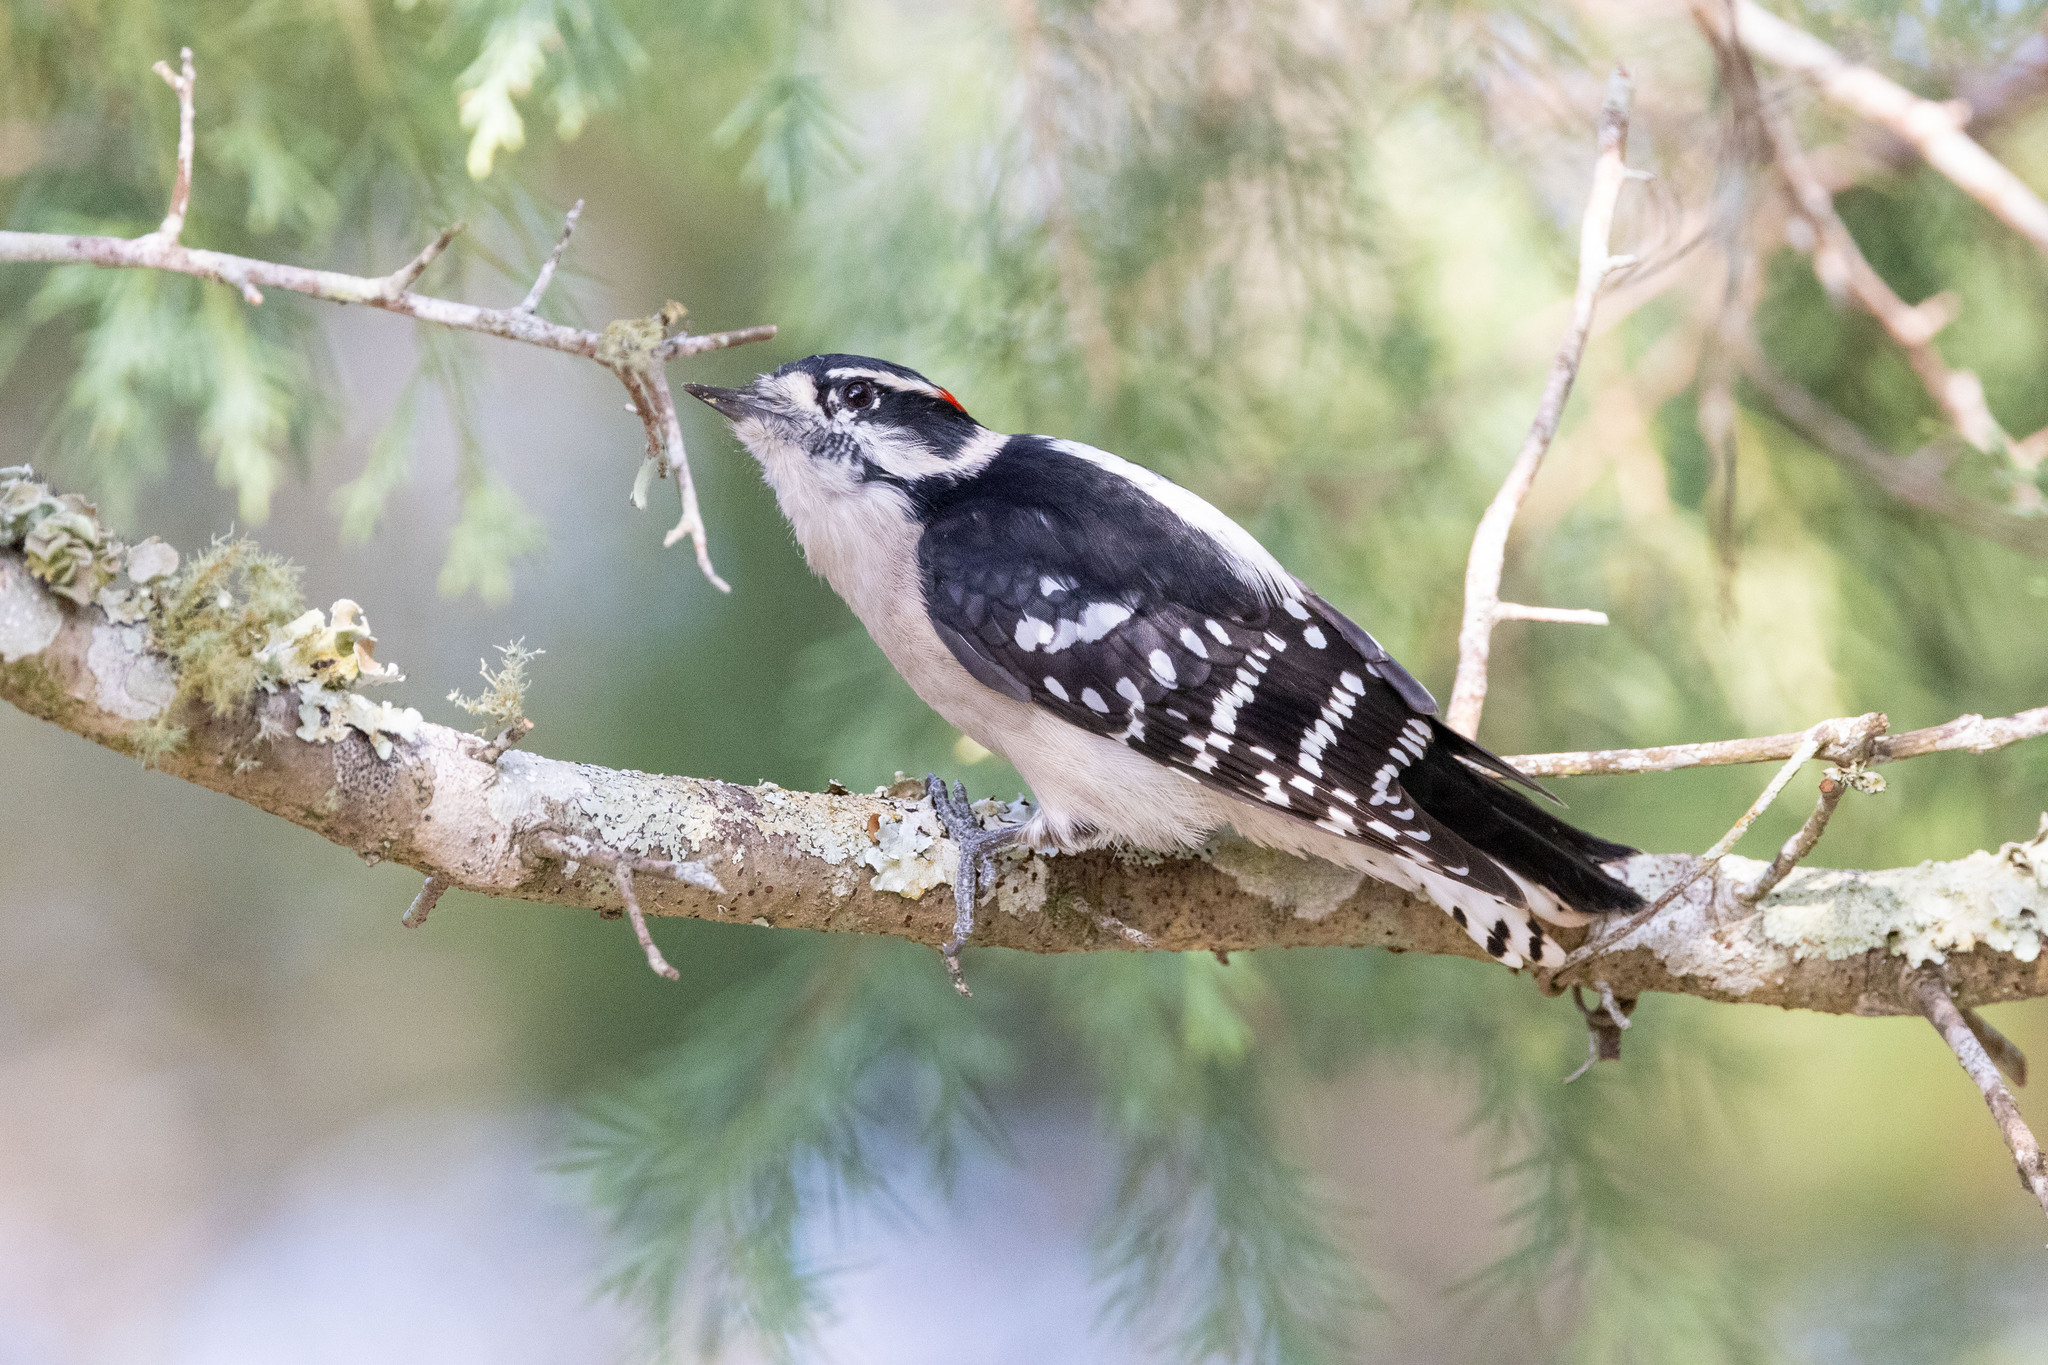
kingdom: Animalia
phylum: Chordata
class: Aves
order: Piciformes
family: Picidae
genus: Dryobates
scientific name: Dryobates pubescens
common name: Downy woodpecker
